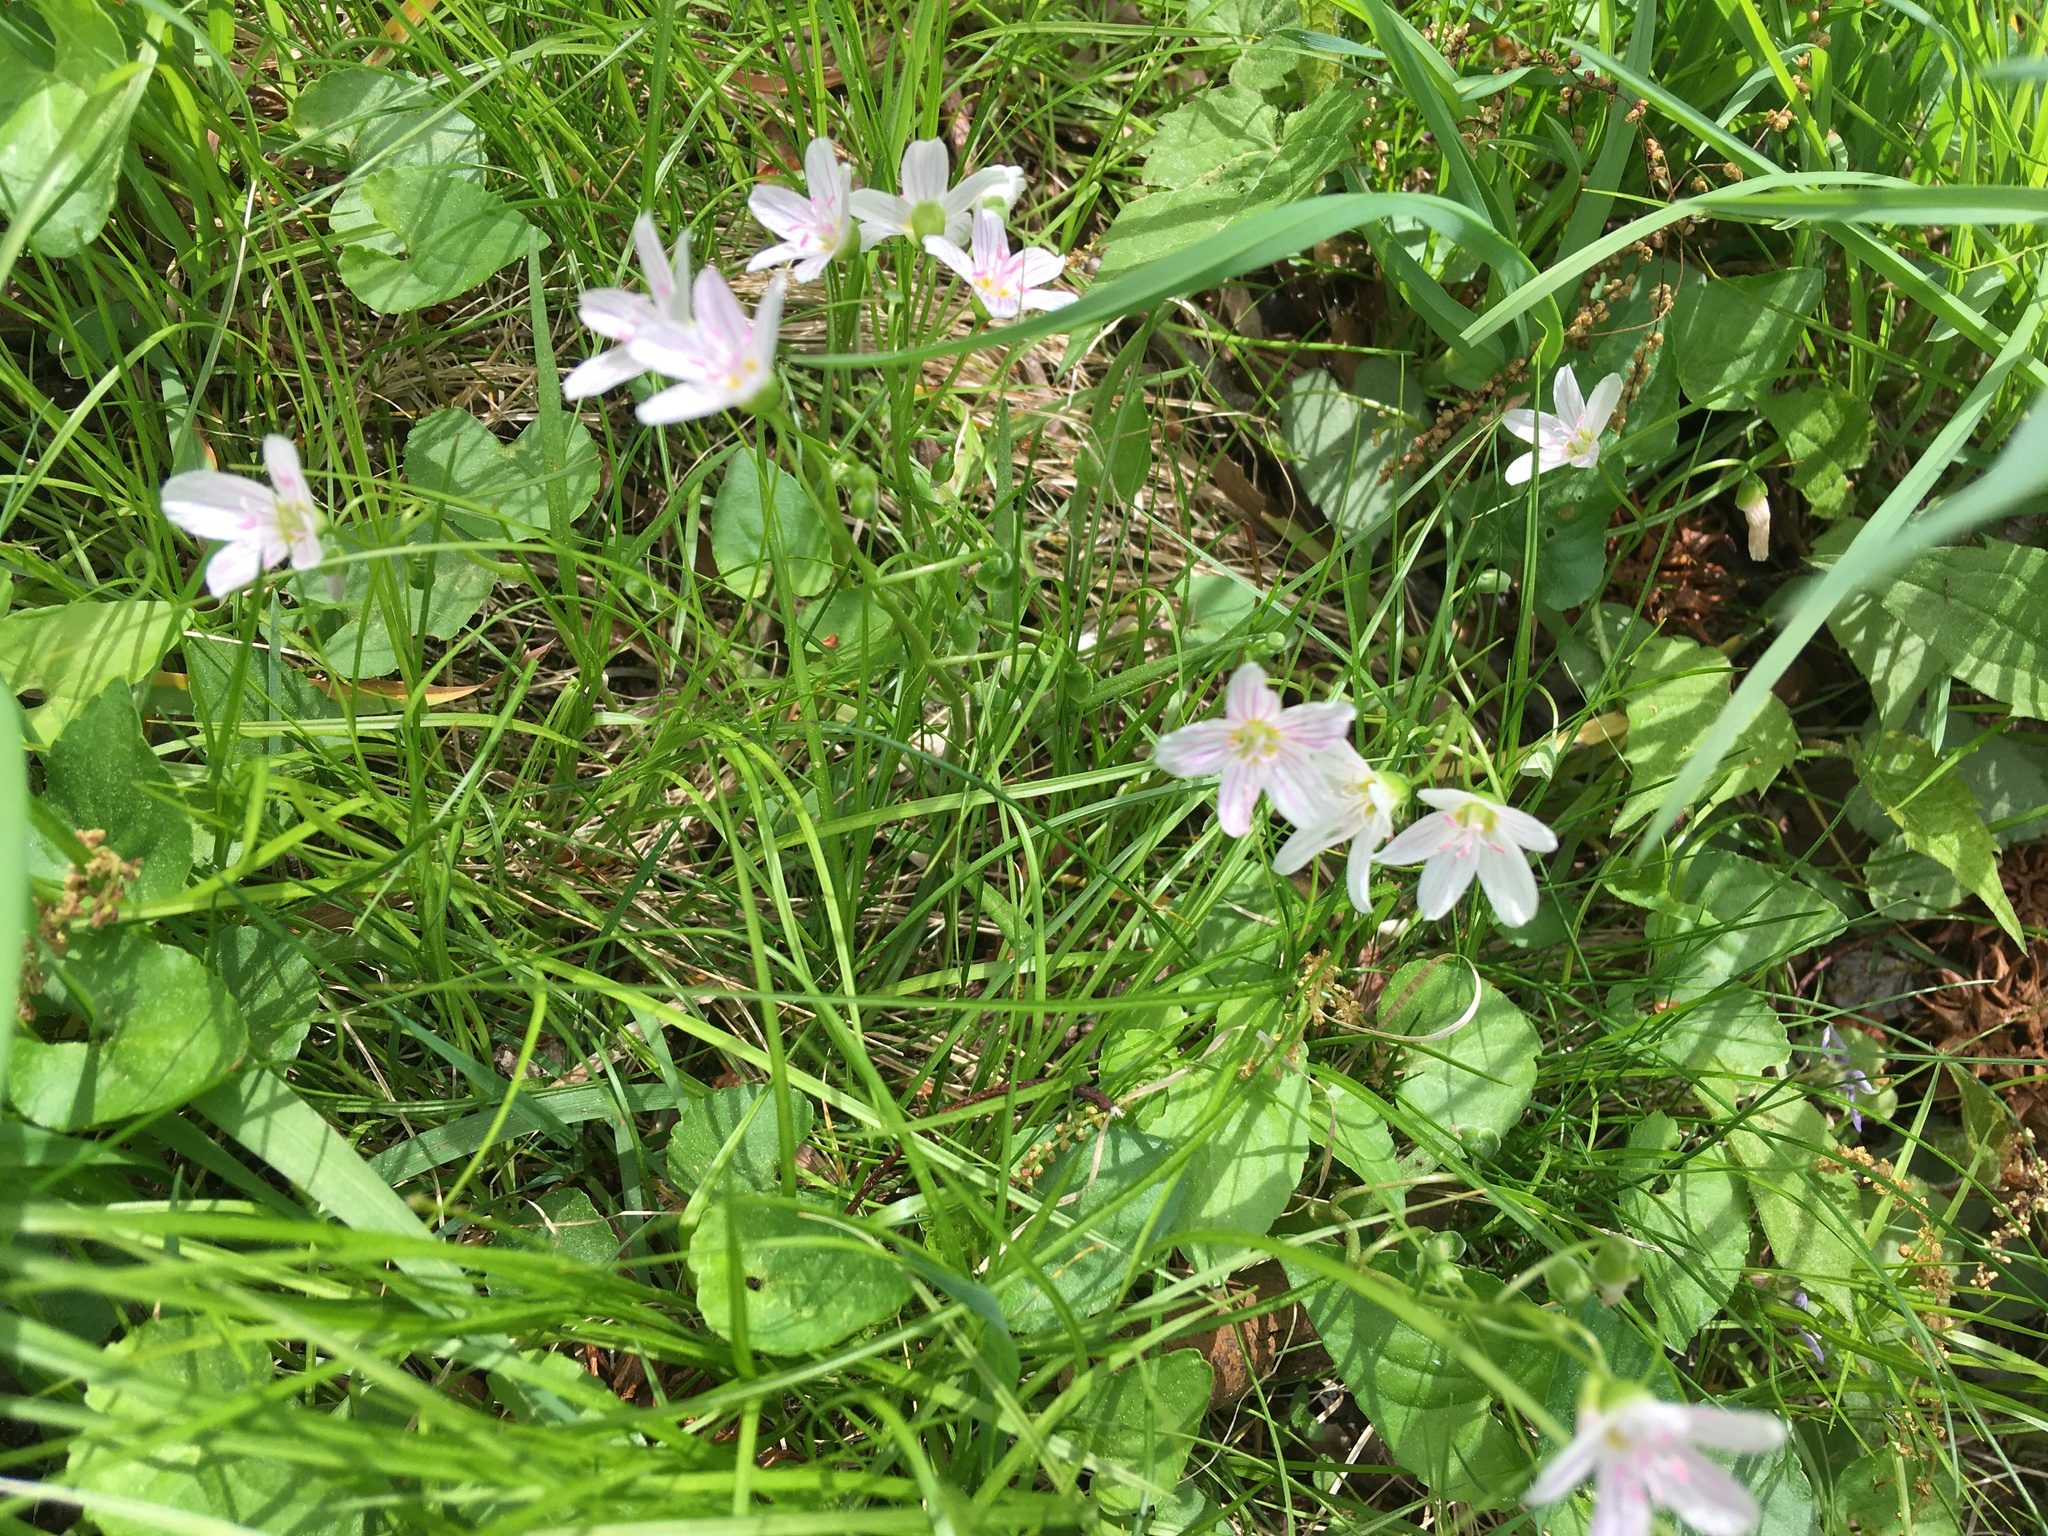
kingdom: Plantae
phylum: Tracheophyta
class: Magnoliopsida
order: Caryophyllales
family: Montiaceae
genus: Claytonia
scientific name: Claytonia virginica
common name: Virginia springbeauty
